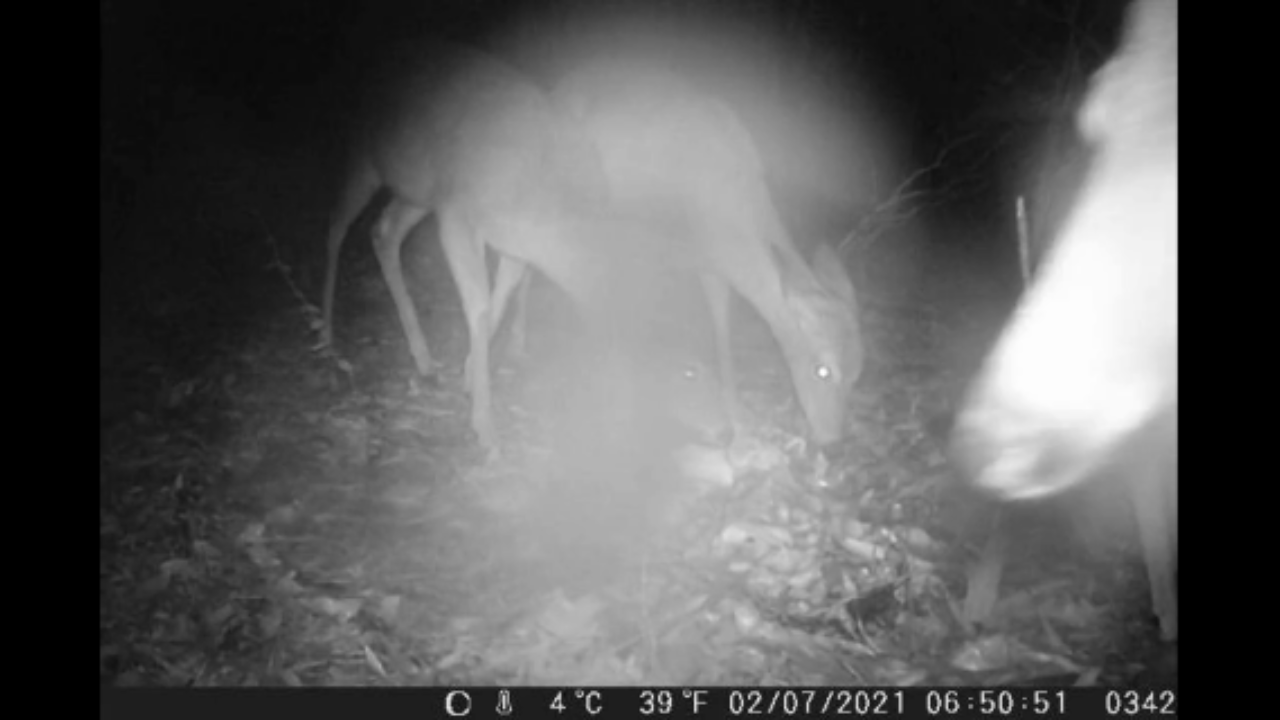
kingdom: Animalia
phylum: Chordata
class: Mammalia
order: Artiodactyla
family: Cervidae
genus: Odocoileus
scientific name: Odocoileus virginianus
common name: White-tailed deer
